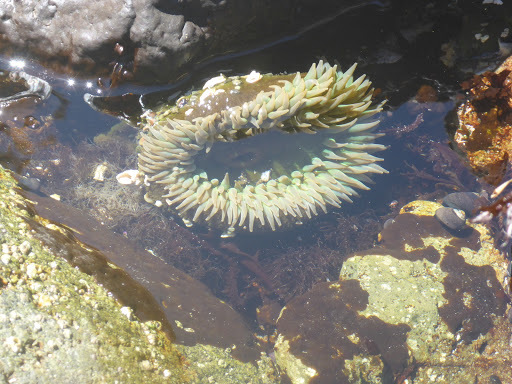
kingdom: Animalia
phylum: Cnidaria
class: Anthozoa
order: Actiniaria
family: Actiniidae
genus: Anthopleura
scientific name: Anthopleura xanthogrammica
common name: Giant green anemone
